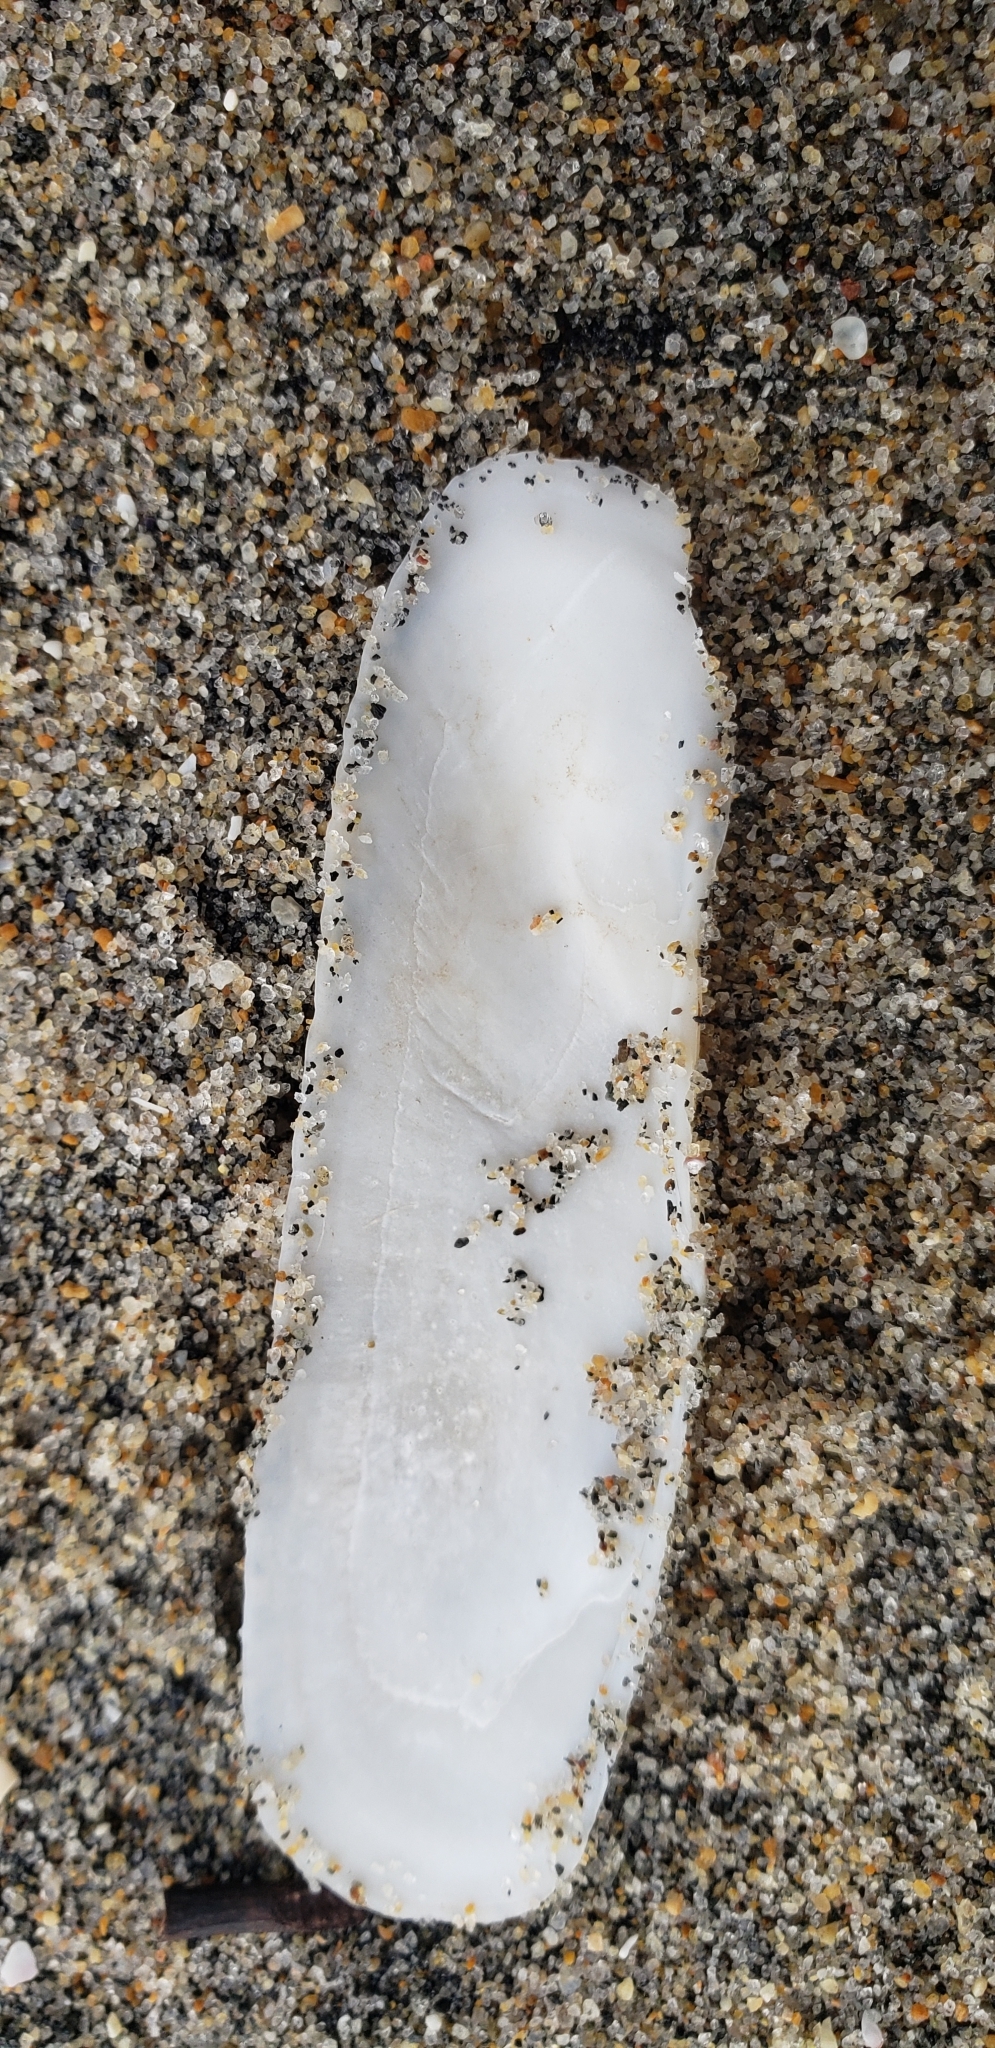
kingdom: Animalia
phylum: Mollusca
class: Bivalvia
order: Cardiida
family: Solecurtidae
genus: Tagelus
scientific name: Tagelus californianus
